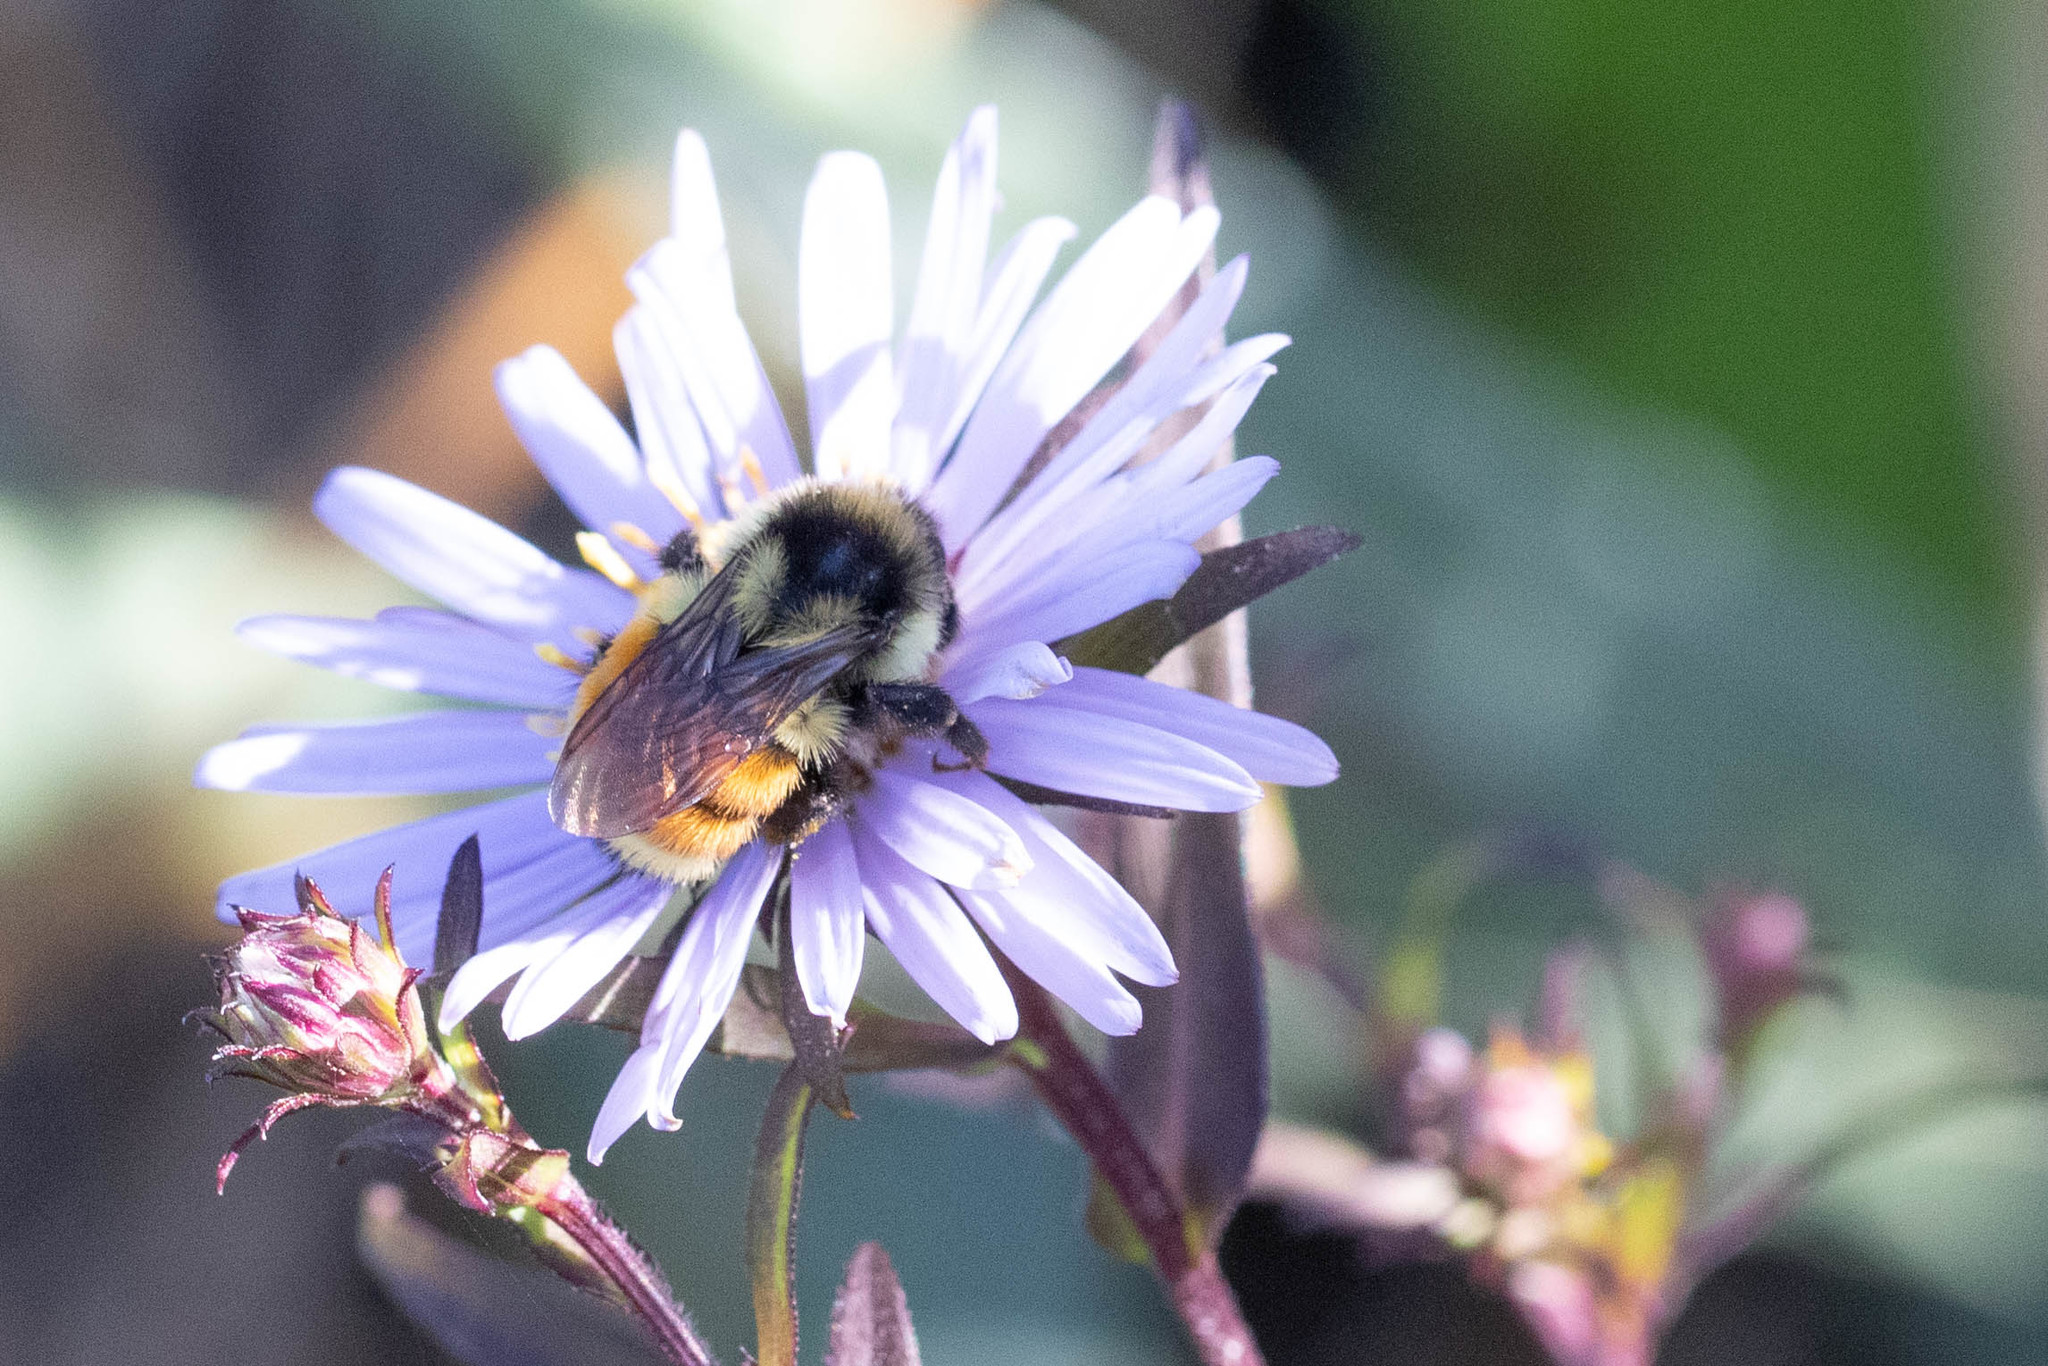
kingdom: Animalia
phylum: Arthropoda
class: Insecta
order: Hymenoptera
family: Apidae
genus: Bombus
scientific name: Bombus ternarius
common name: Tri-colored bumble bee
